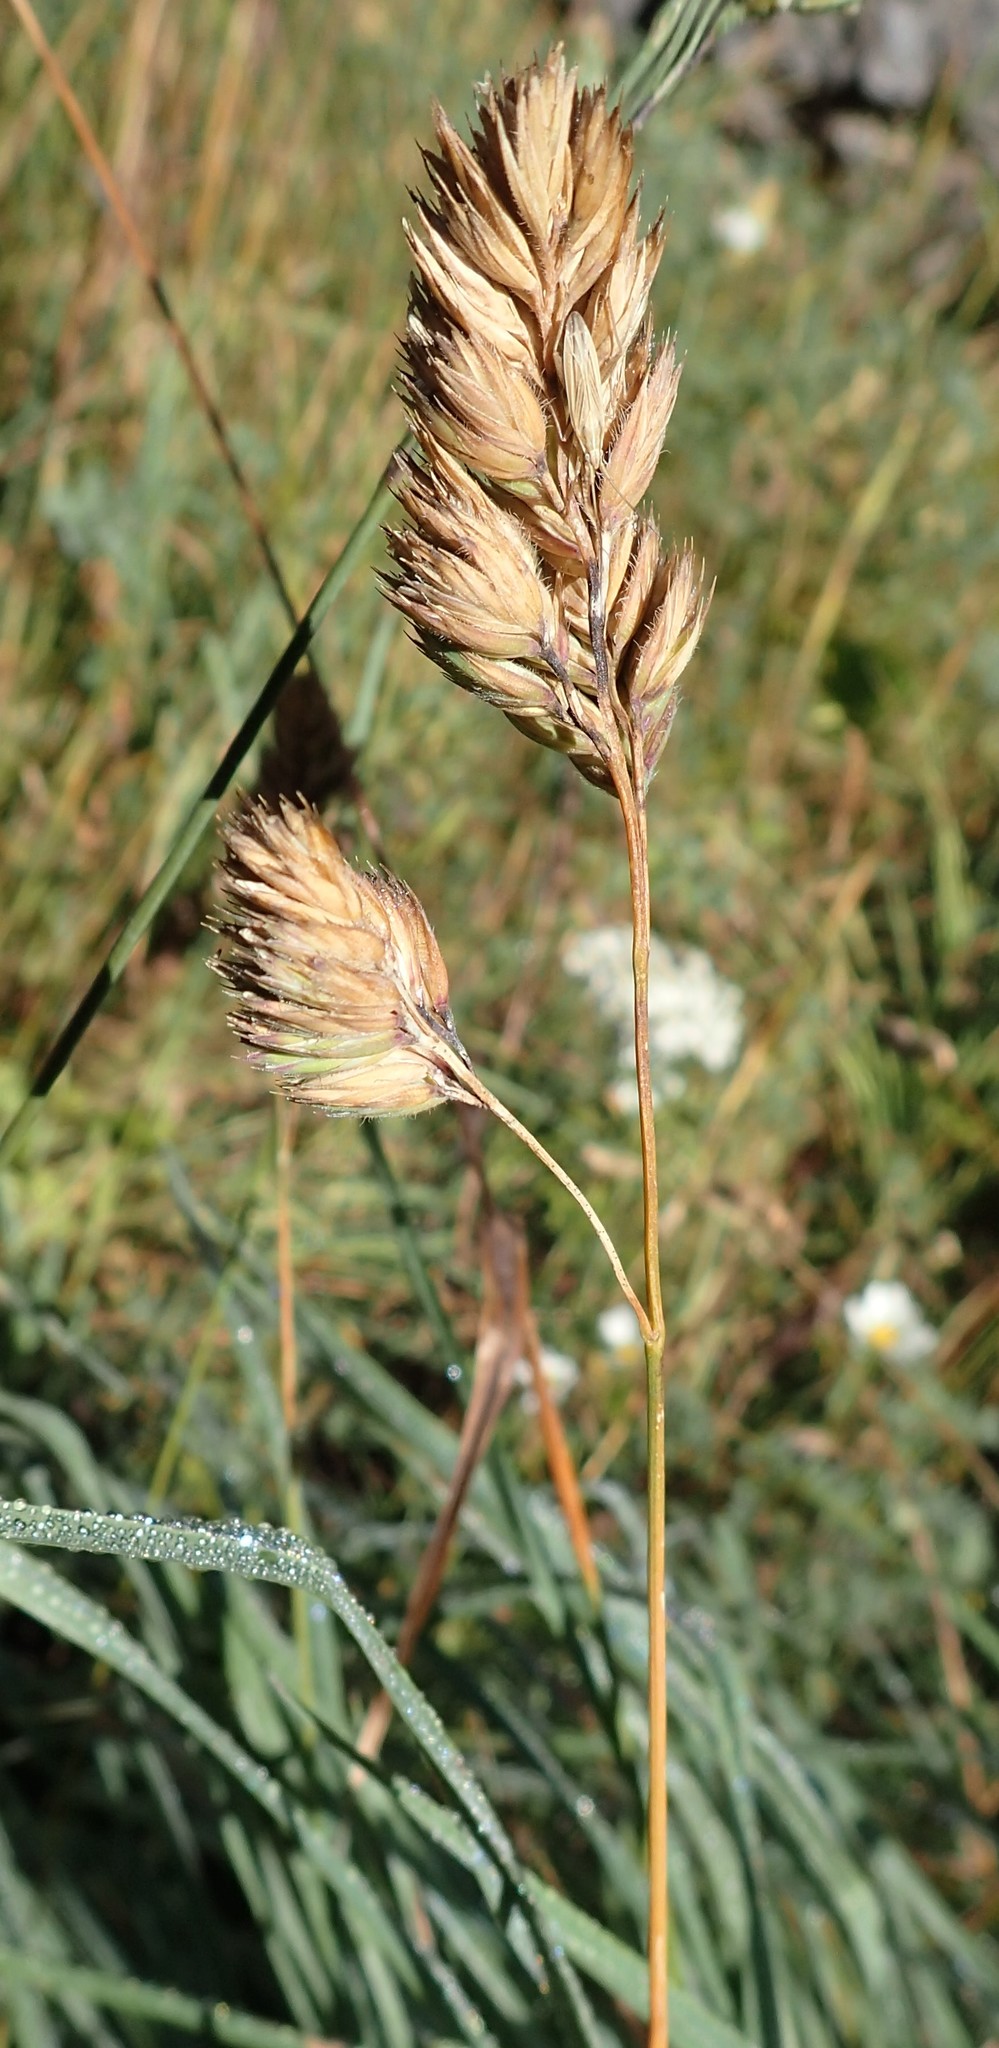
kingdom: Plantae
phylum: Tracheophyta
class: Liliopsida
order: Poales
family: Poaceae
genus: Dactylis
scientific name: Dactylis glomerata
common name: Orchardgrass
